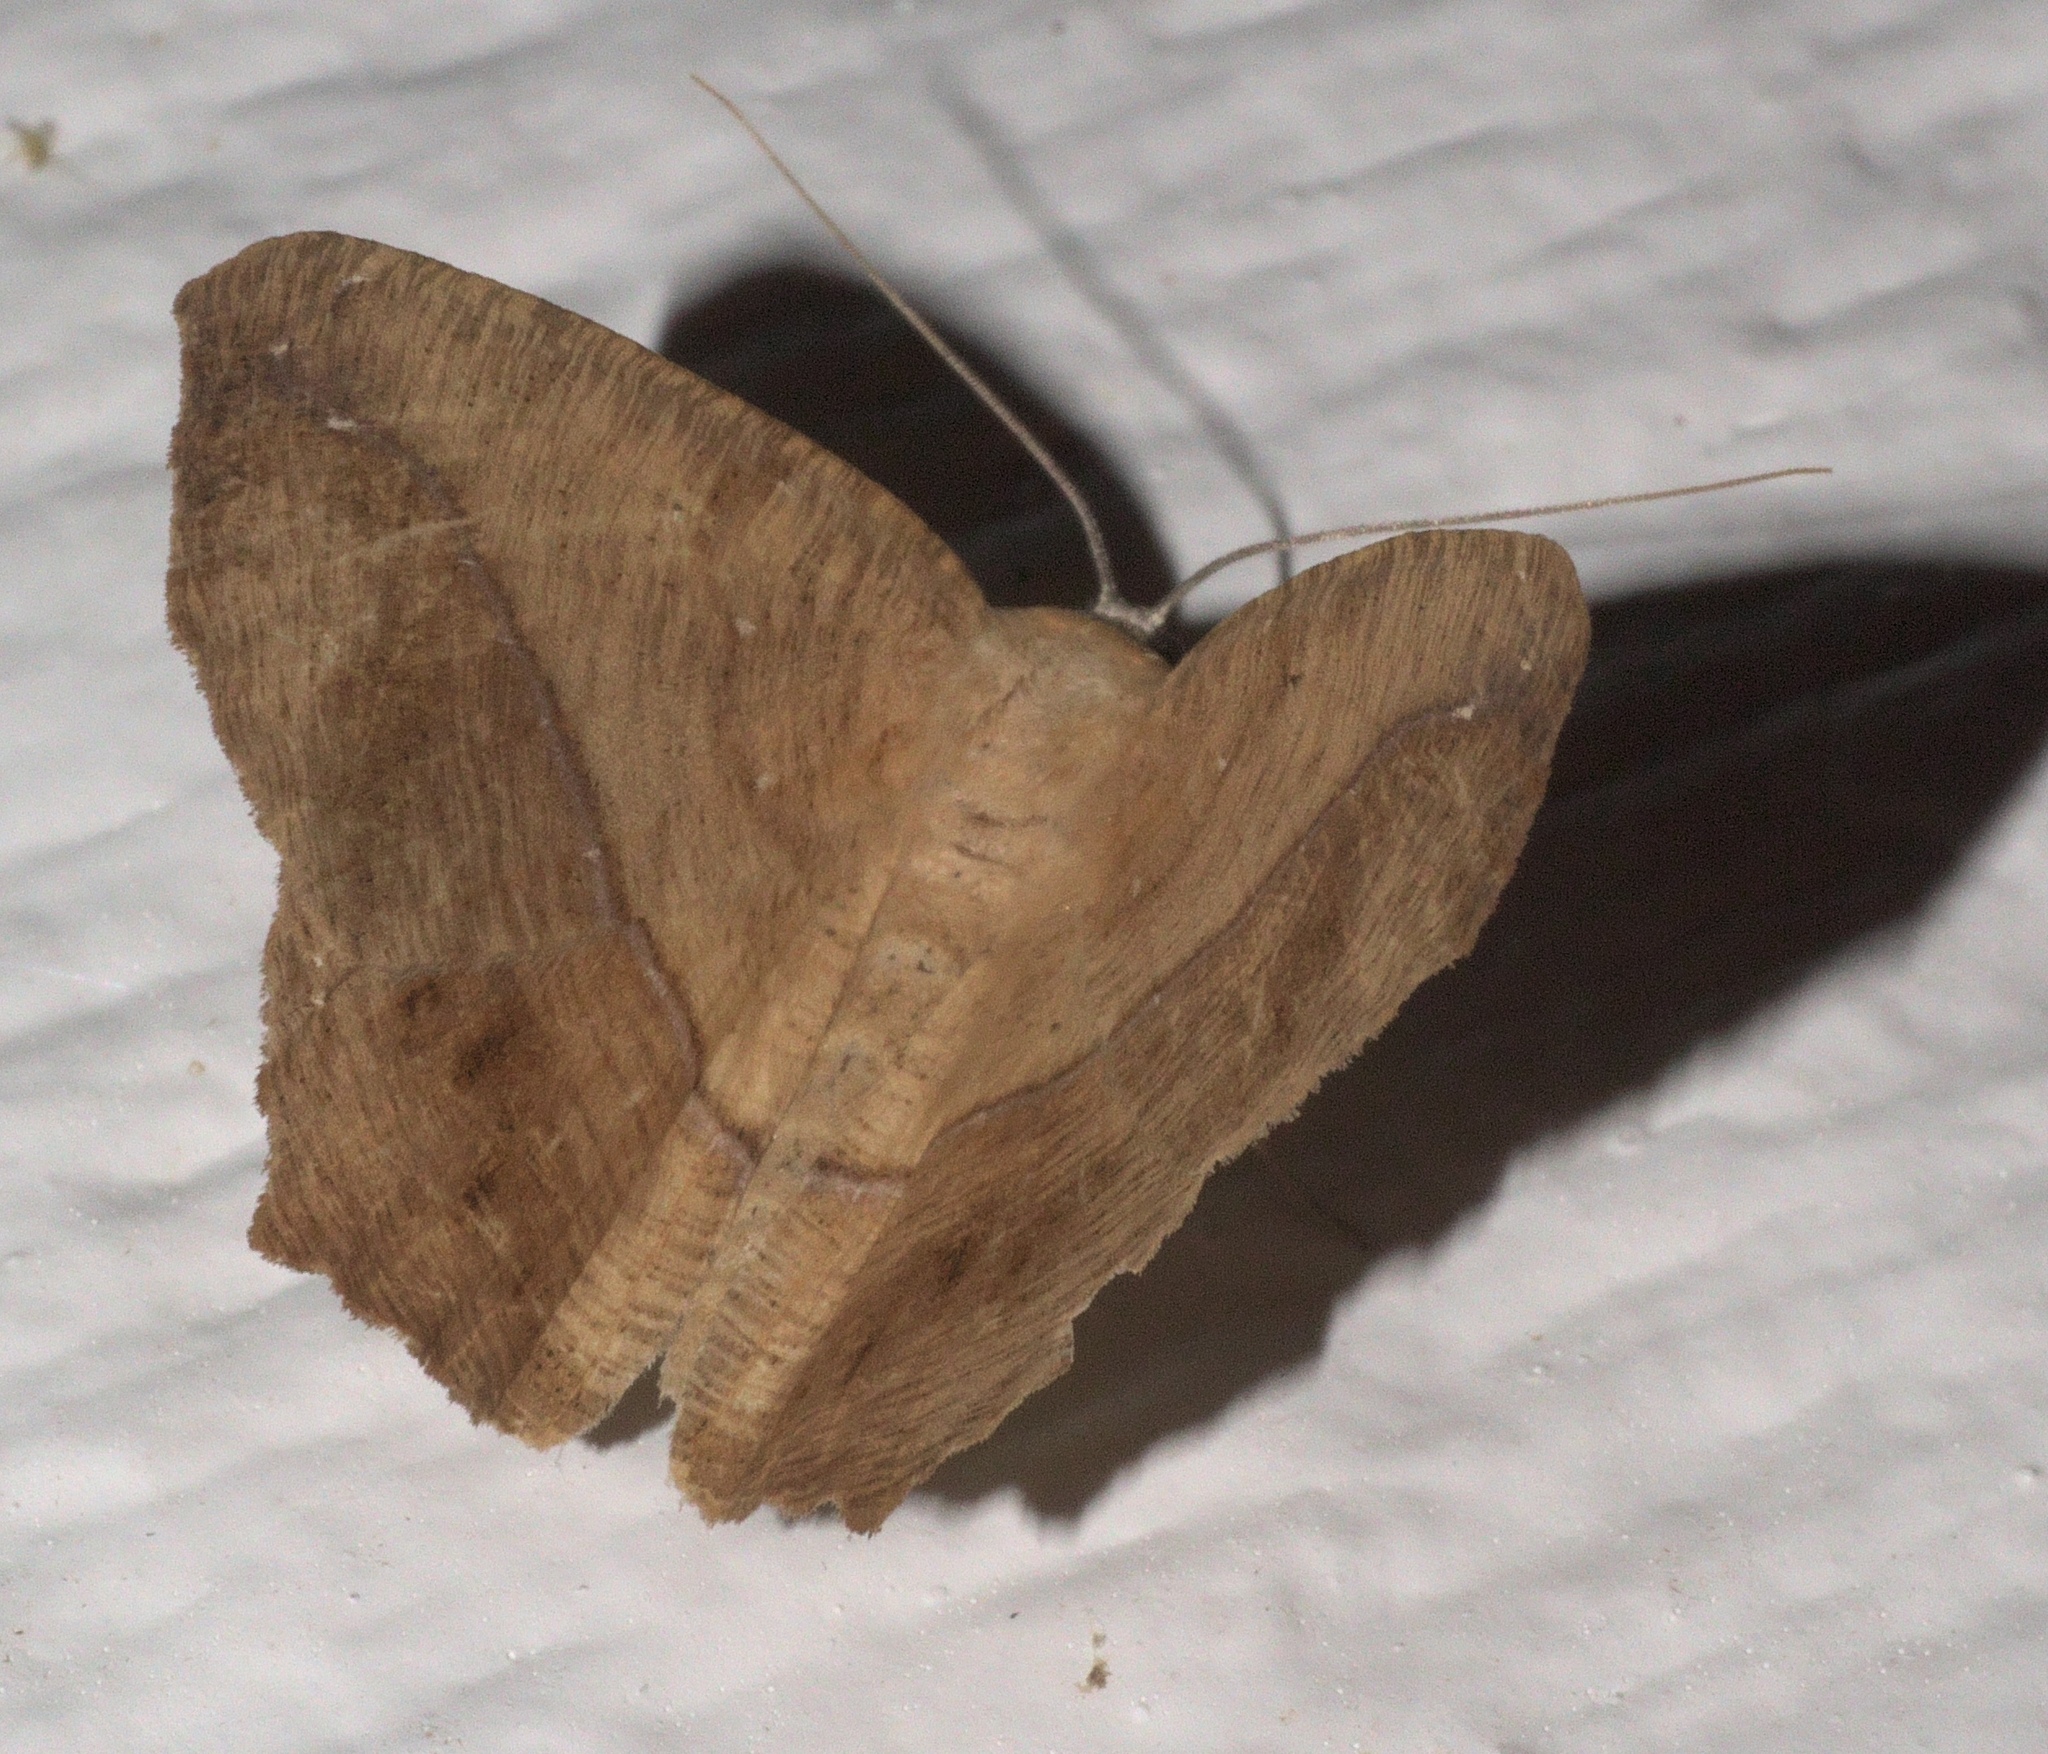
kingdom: Animalia
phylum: Arthropoda
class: Insecta
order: Lepidoptera
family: Geometridae
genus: Prochoerodes
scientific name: Prochoerodes lineola
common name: Large maple spanworm
